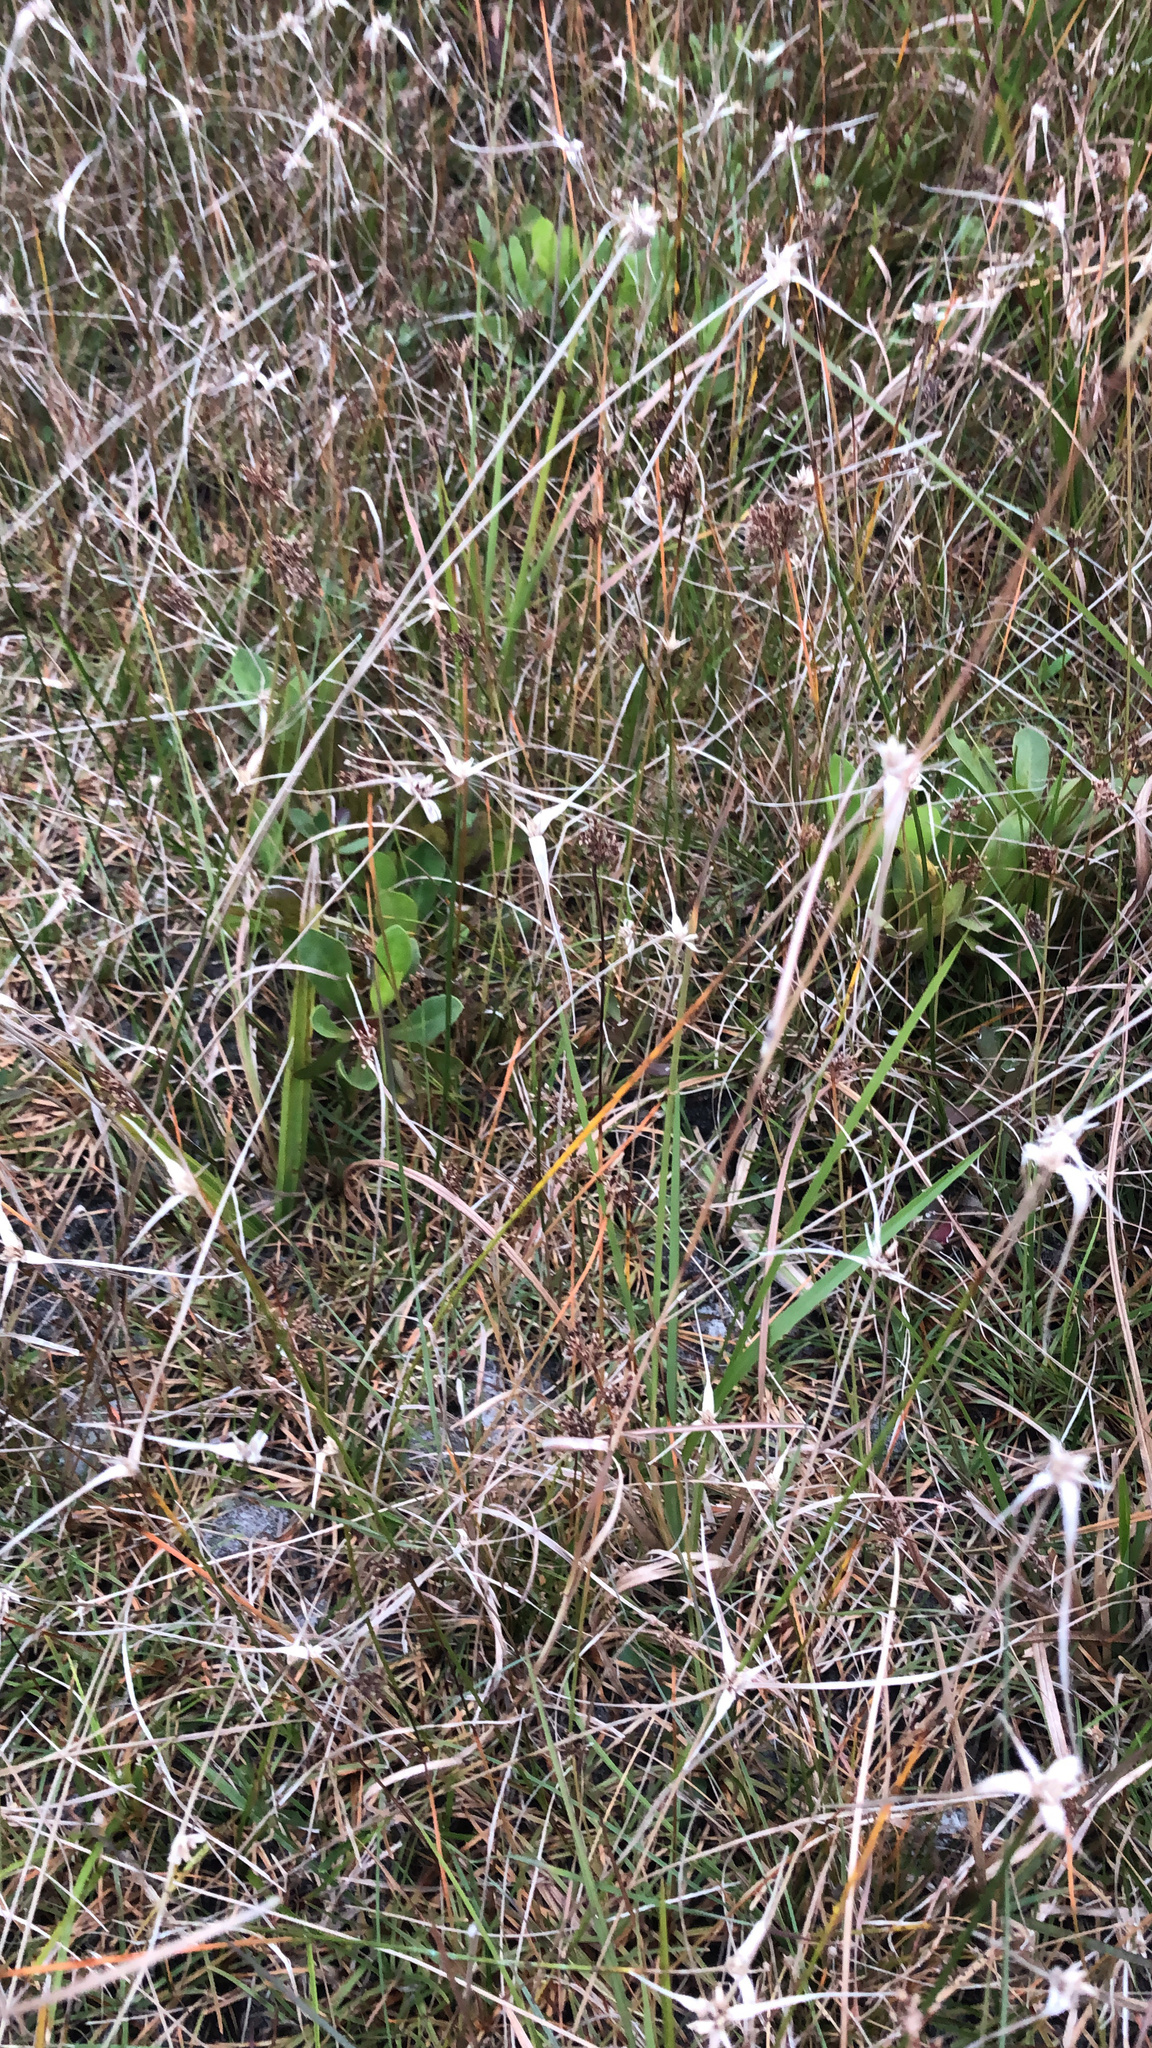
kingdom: Plantae
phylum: Tracheophyta
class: Liliopsida
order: Poales
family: Cyperaceae
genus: Rhynchospora
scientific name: Rhynchospora colorata
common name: Star sedge
